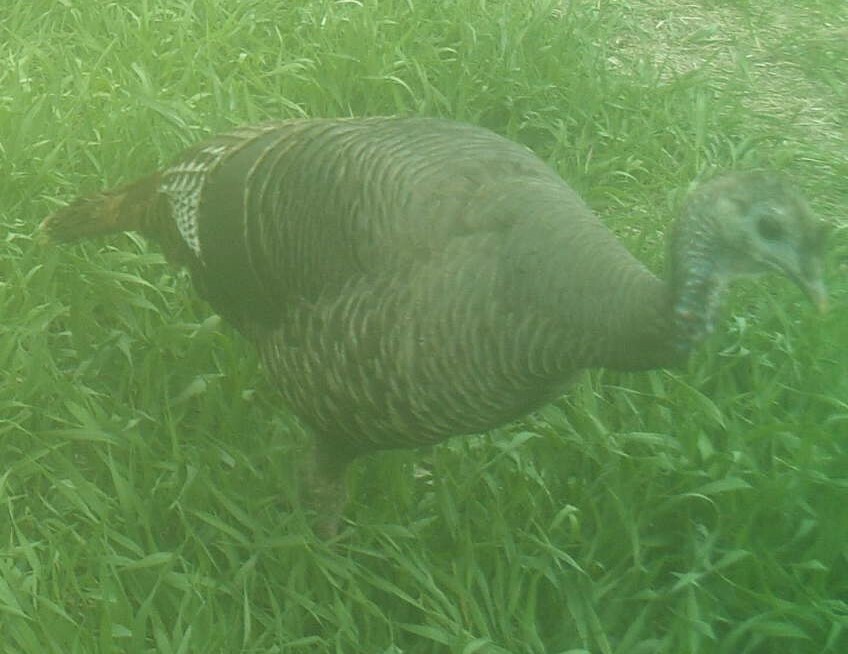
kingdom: Animalia
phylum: Chordata
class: Aves
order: Galliformes
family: Phasianidae
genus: Meleagris
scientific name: Meleagris gallopavo
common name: Wild turkey
